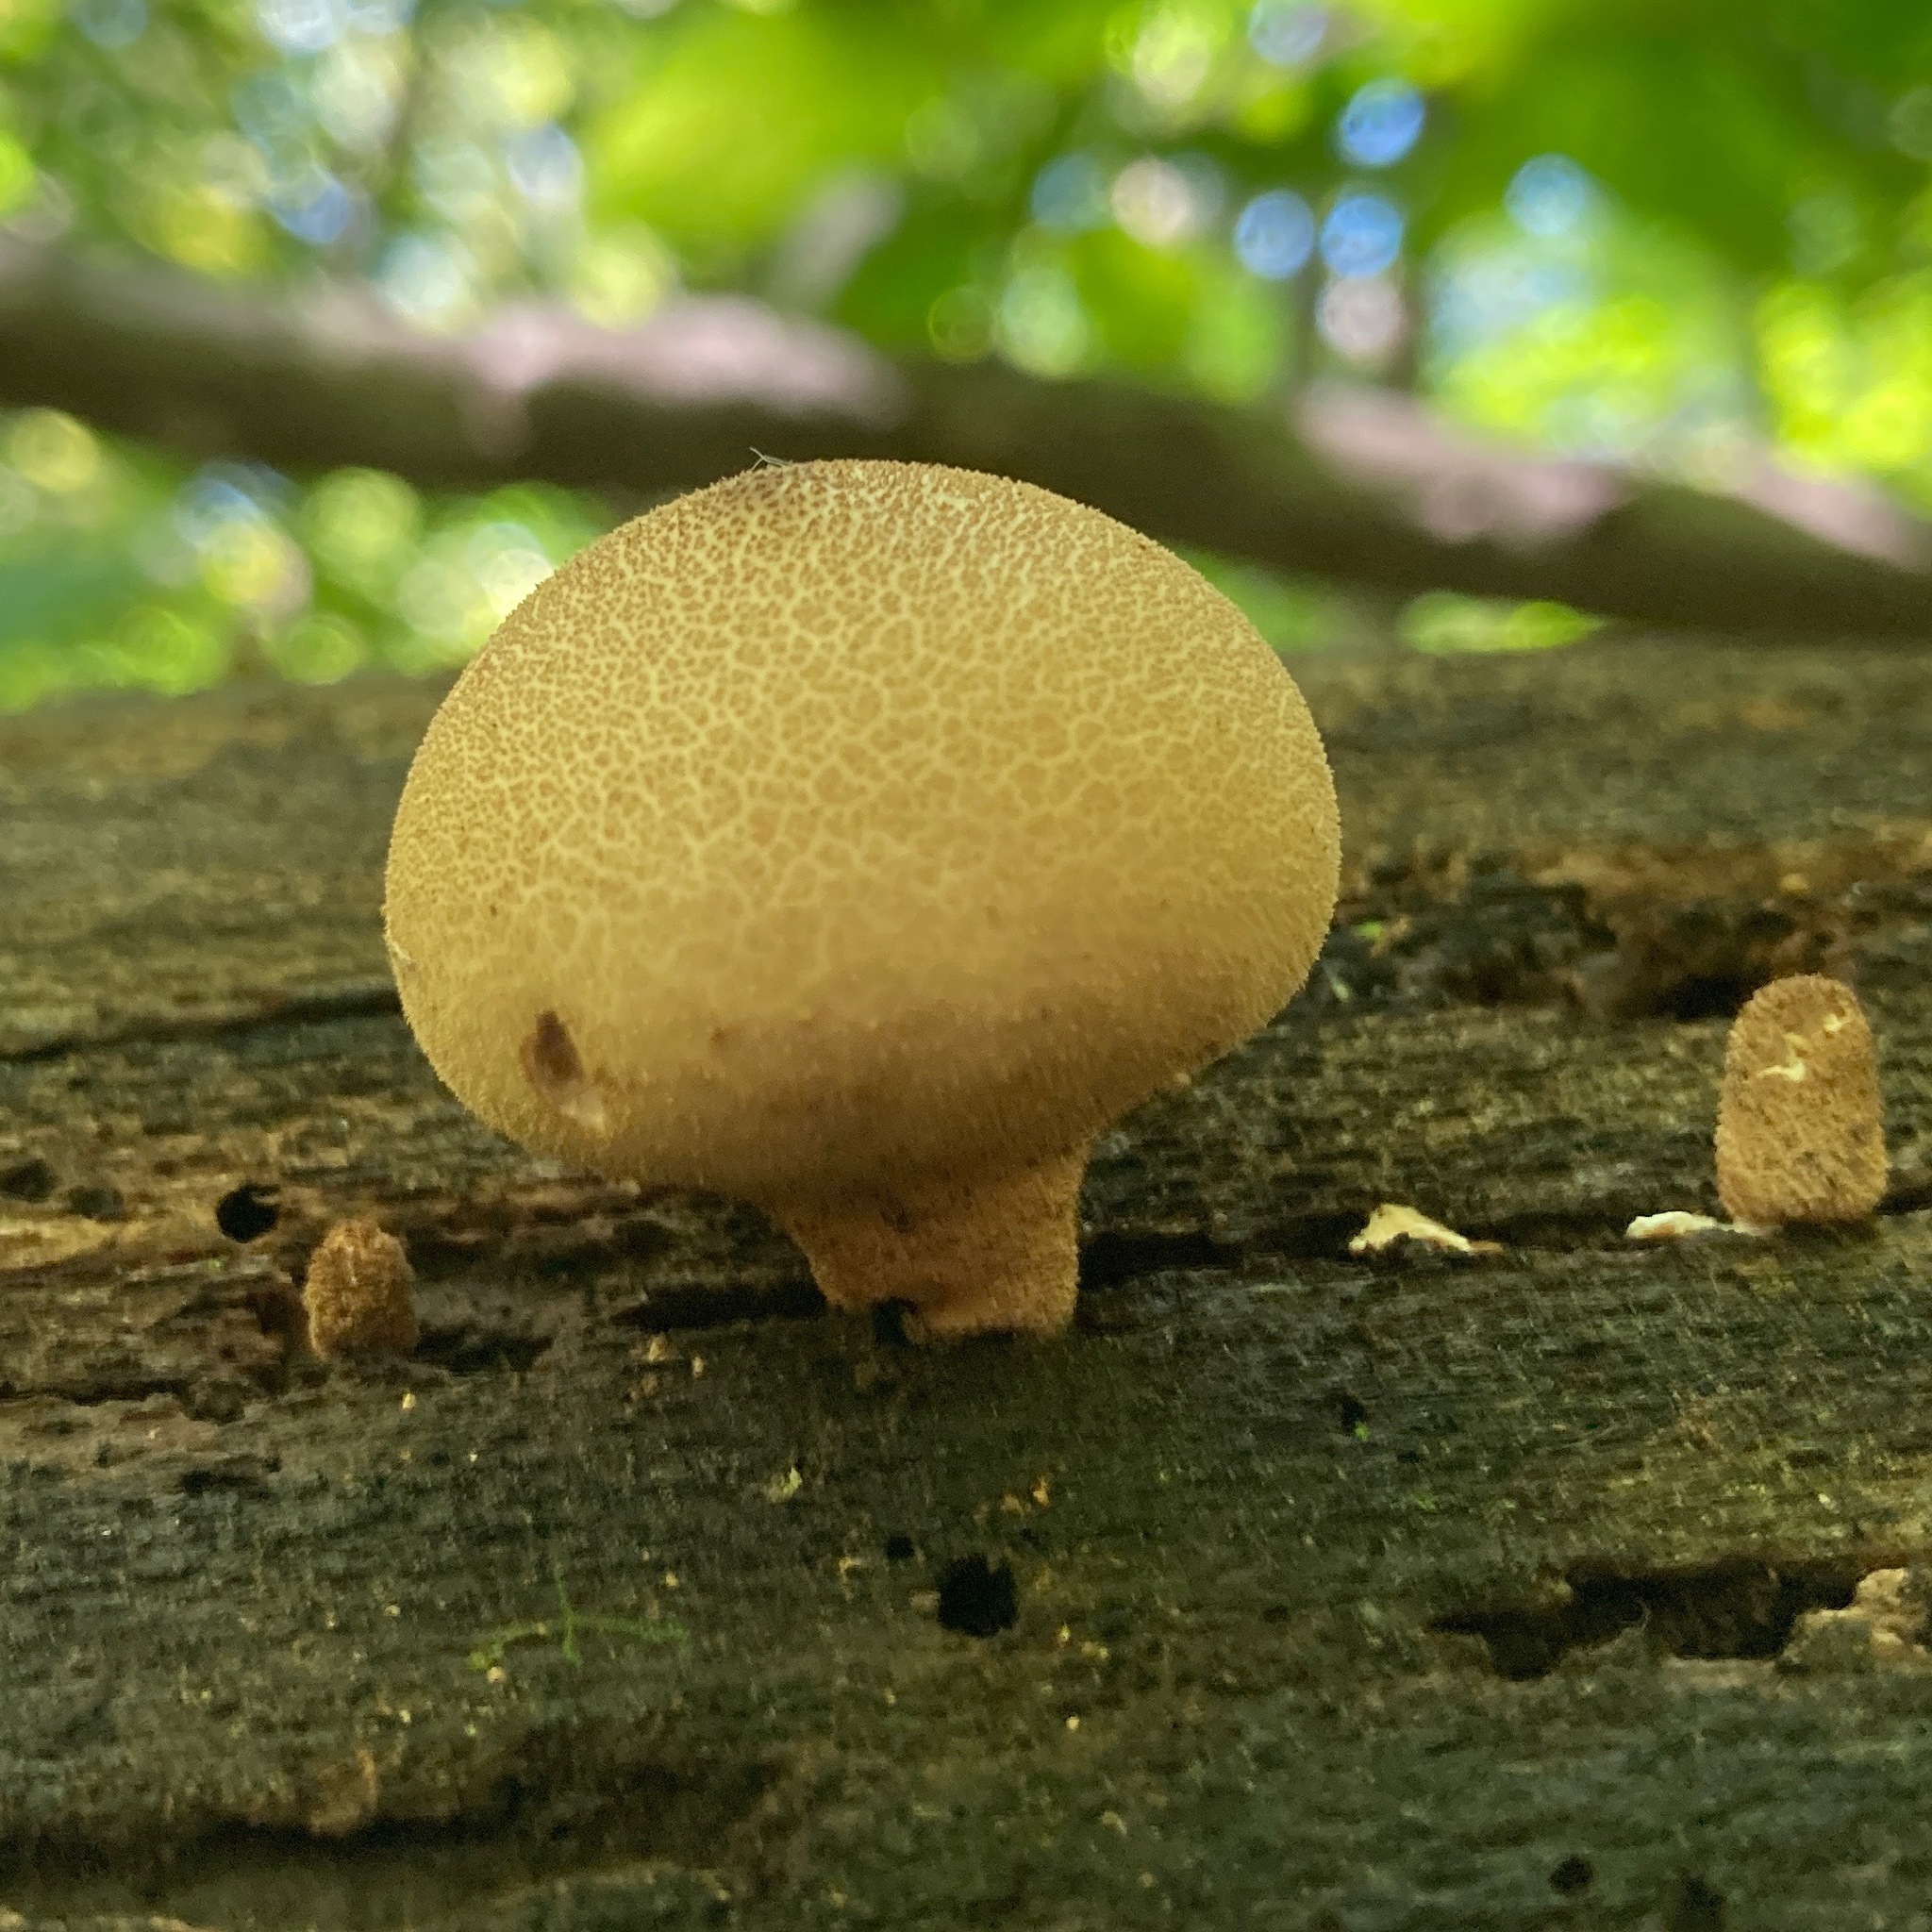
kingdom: Fungi
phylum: Basidiomycota
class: Agaricomycetes
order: Agaricales
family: Lycoperdaceae
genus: Apioperdon
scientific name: Apioperdon pyriforme
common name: Pear-shaped puffball
